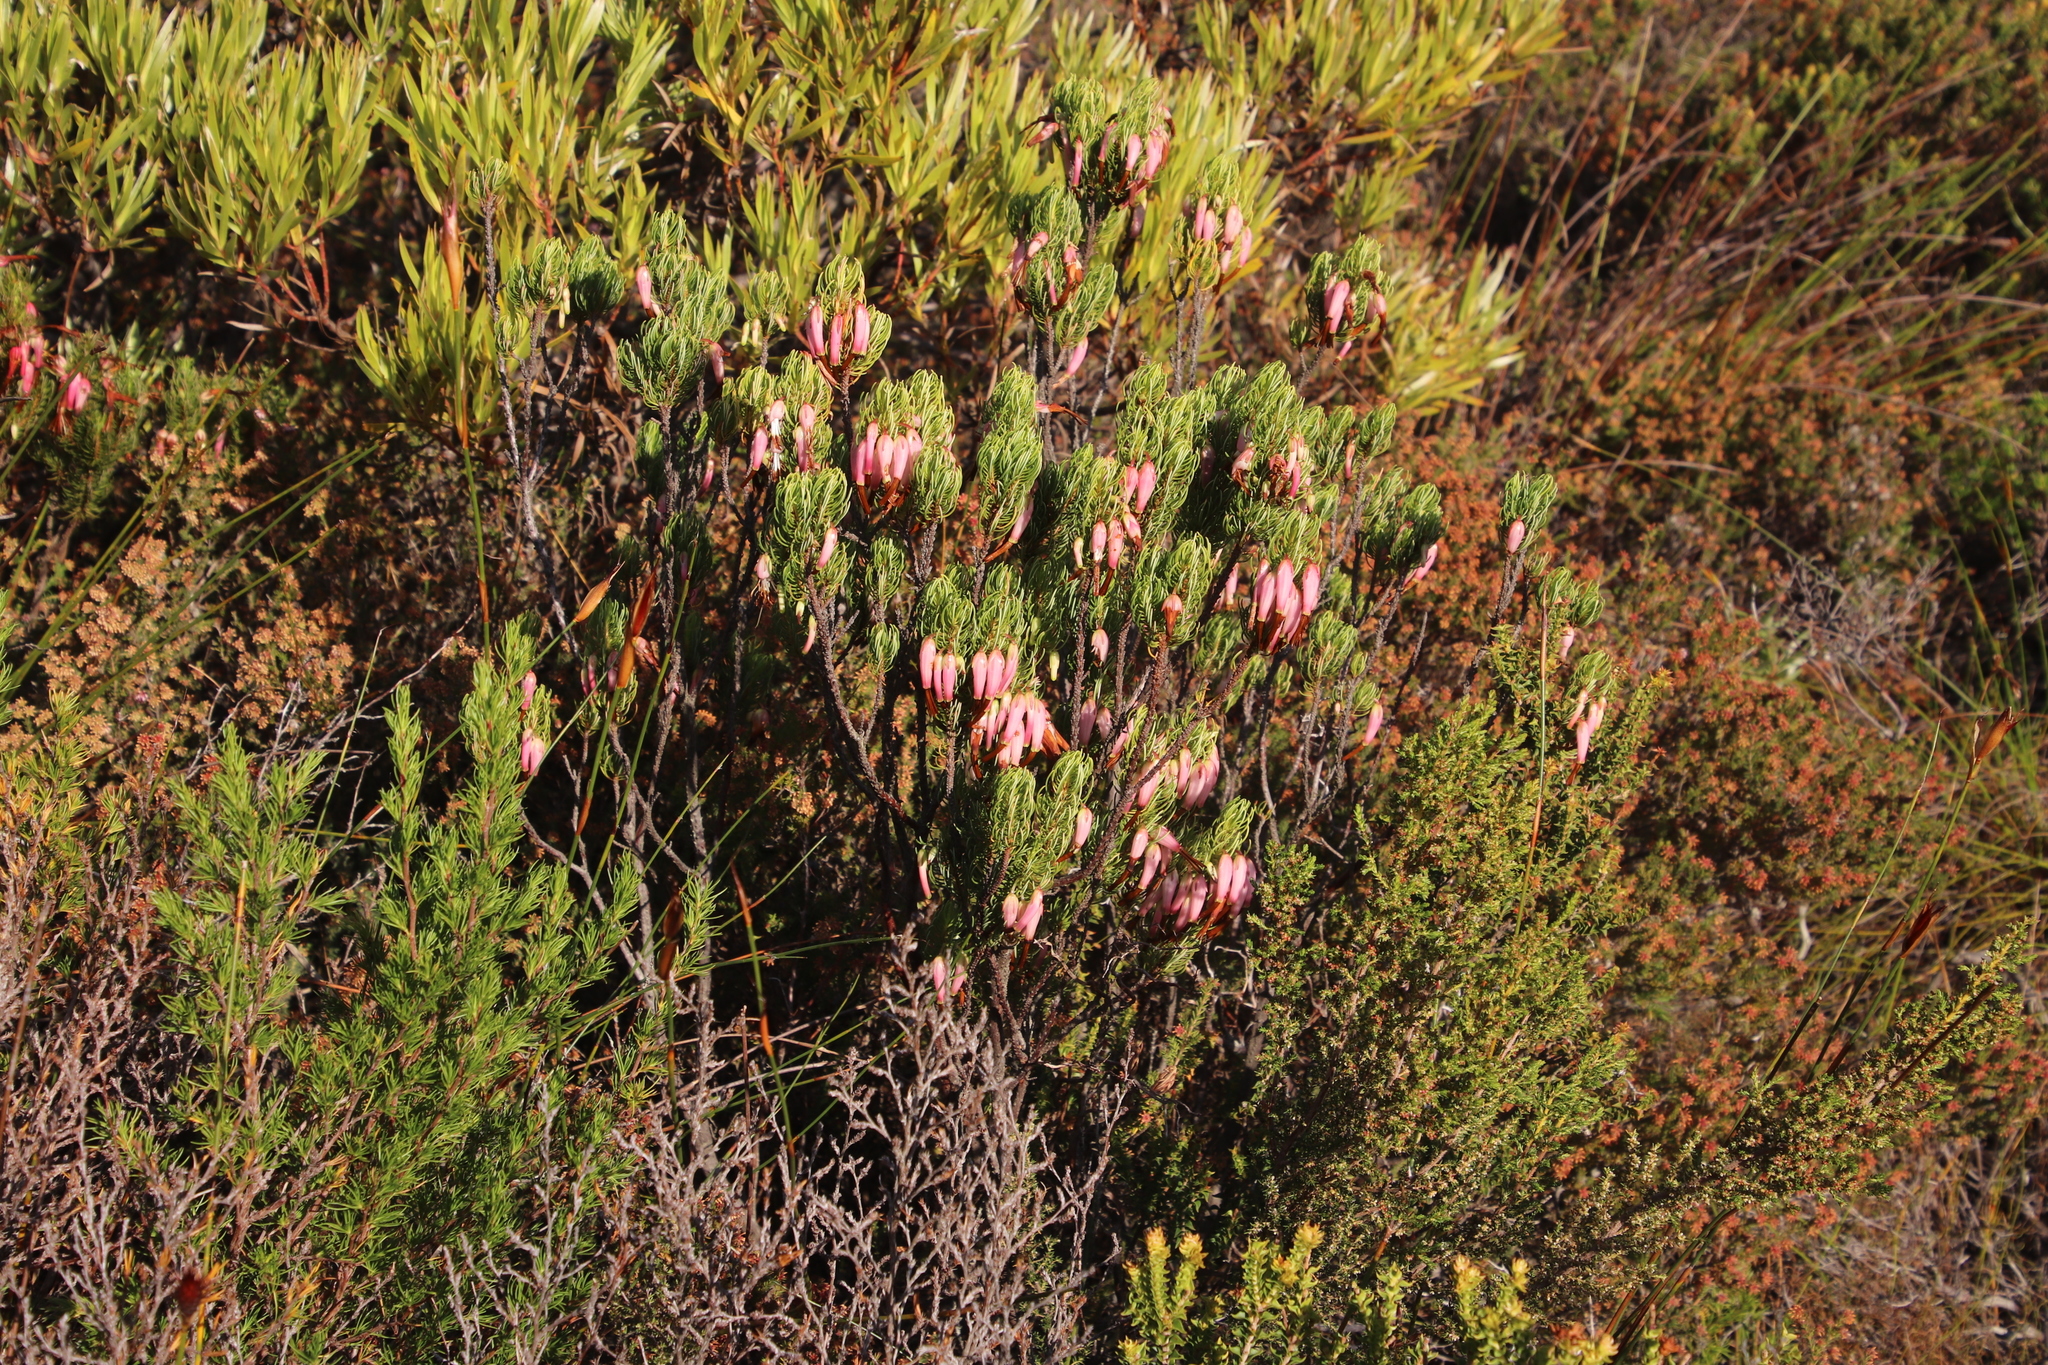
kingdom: Plantae
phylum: Tracheophyta
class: Magnoliopsida
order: Ericales
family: Ericaceae
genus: Erica
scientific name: Erica plukenetii
